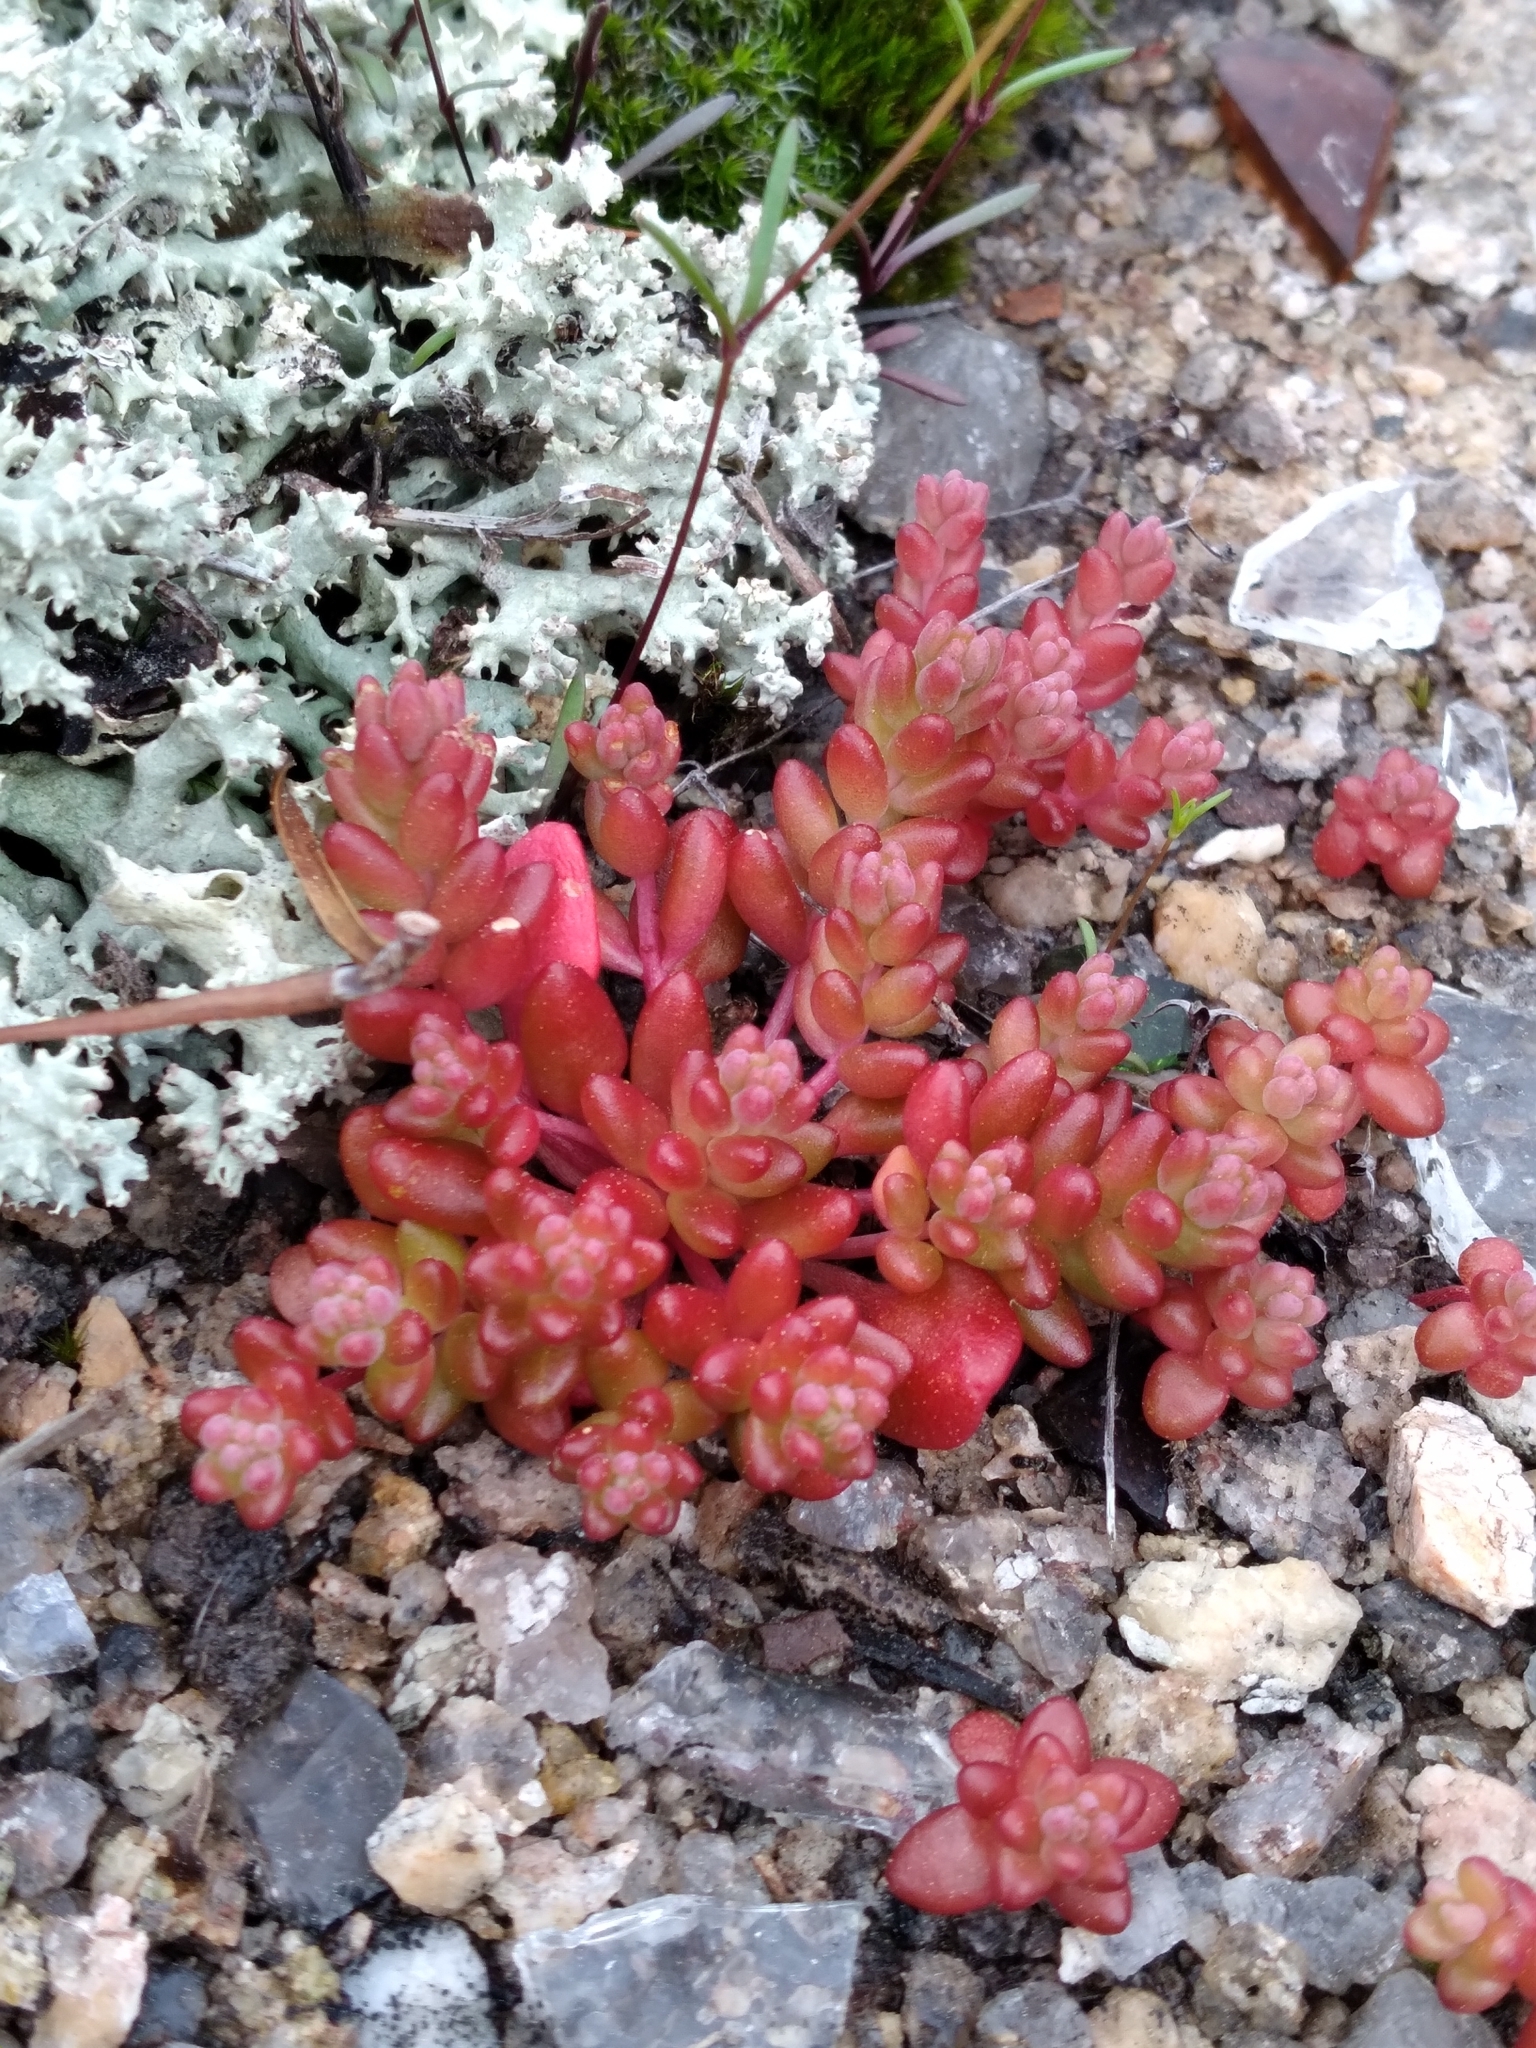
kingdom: Plantae
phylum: Tracheophyta
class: Magnoliopsida
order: Saxifragales
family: Crassulaceae
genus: Sedum
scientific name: Sedum smallii
